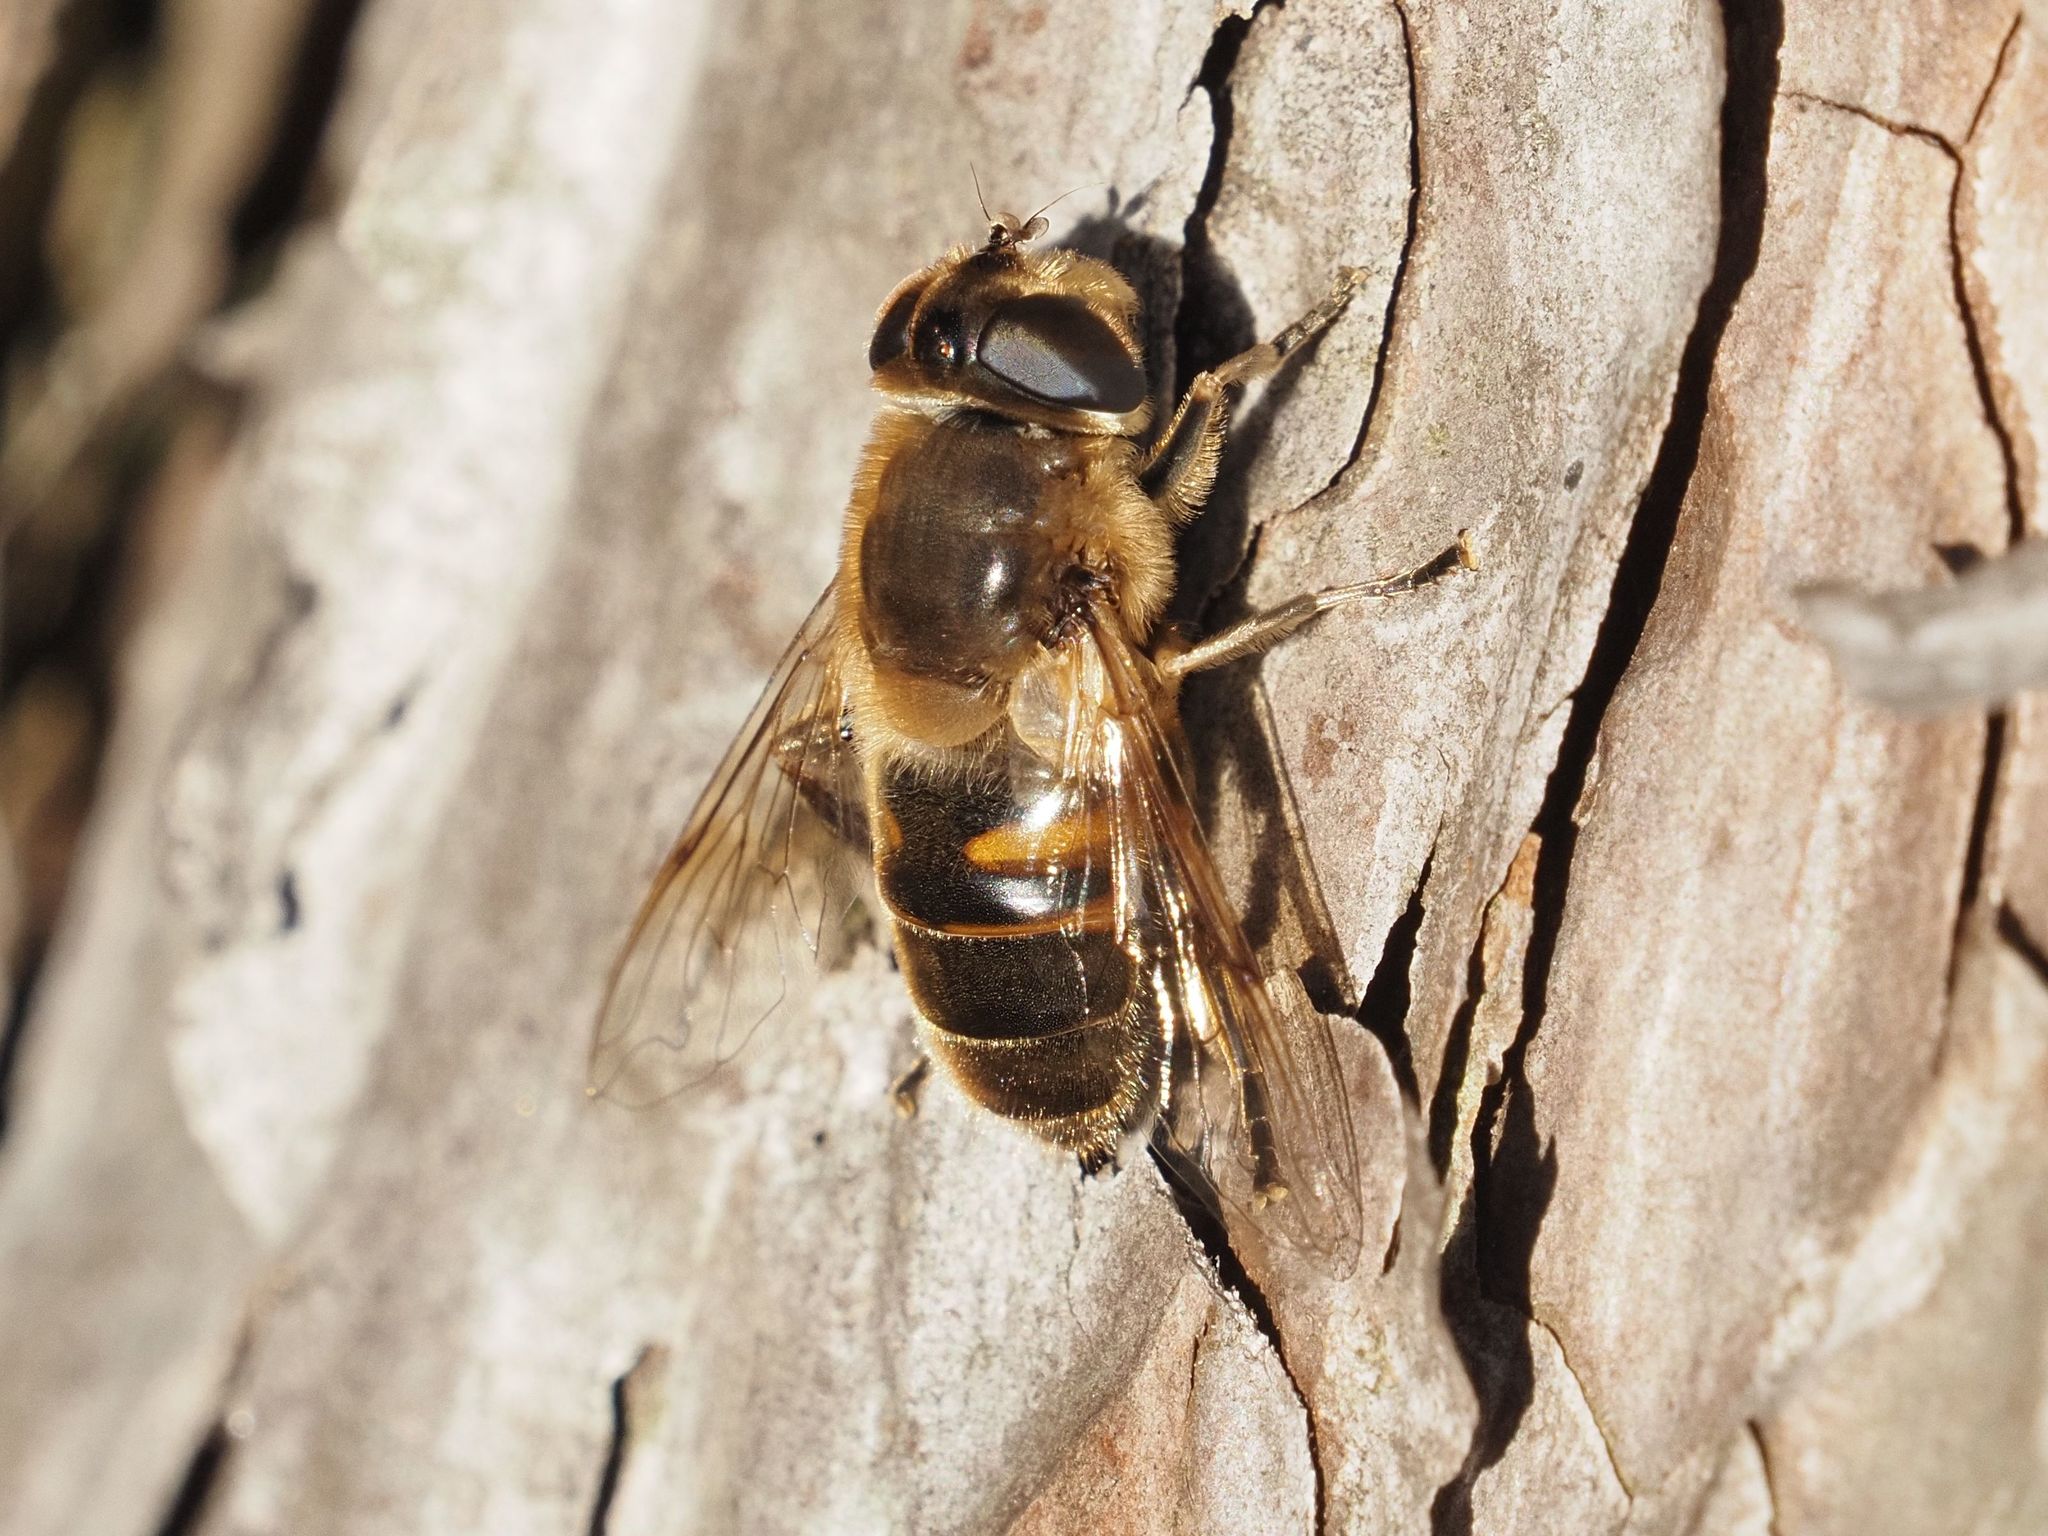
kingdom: Animalia
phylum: Arthropoda
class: Insecta
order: Diptera
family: Syrphidae
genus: Eristalis
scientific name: Eristalis tenax
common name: Drone fly
